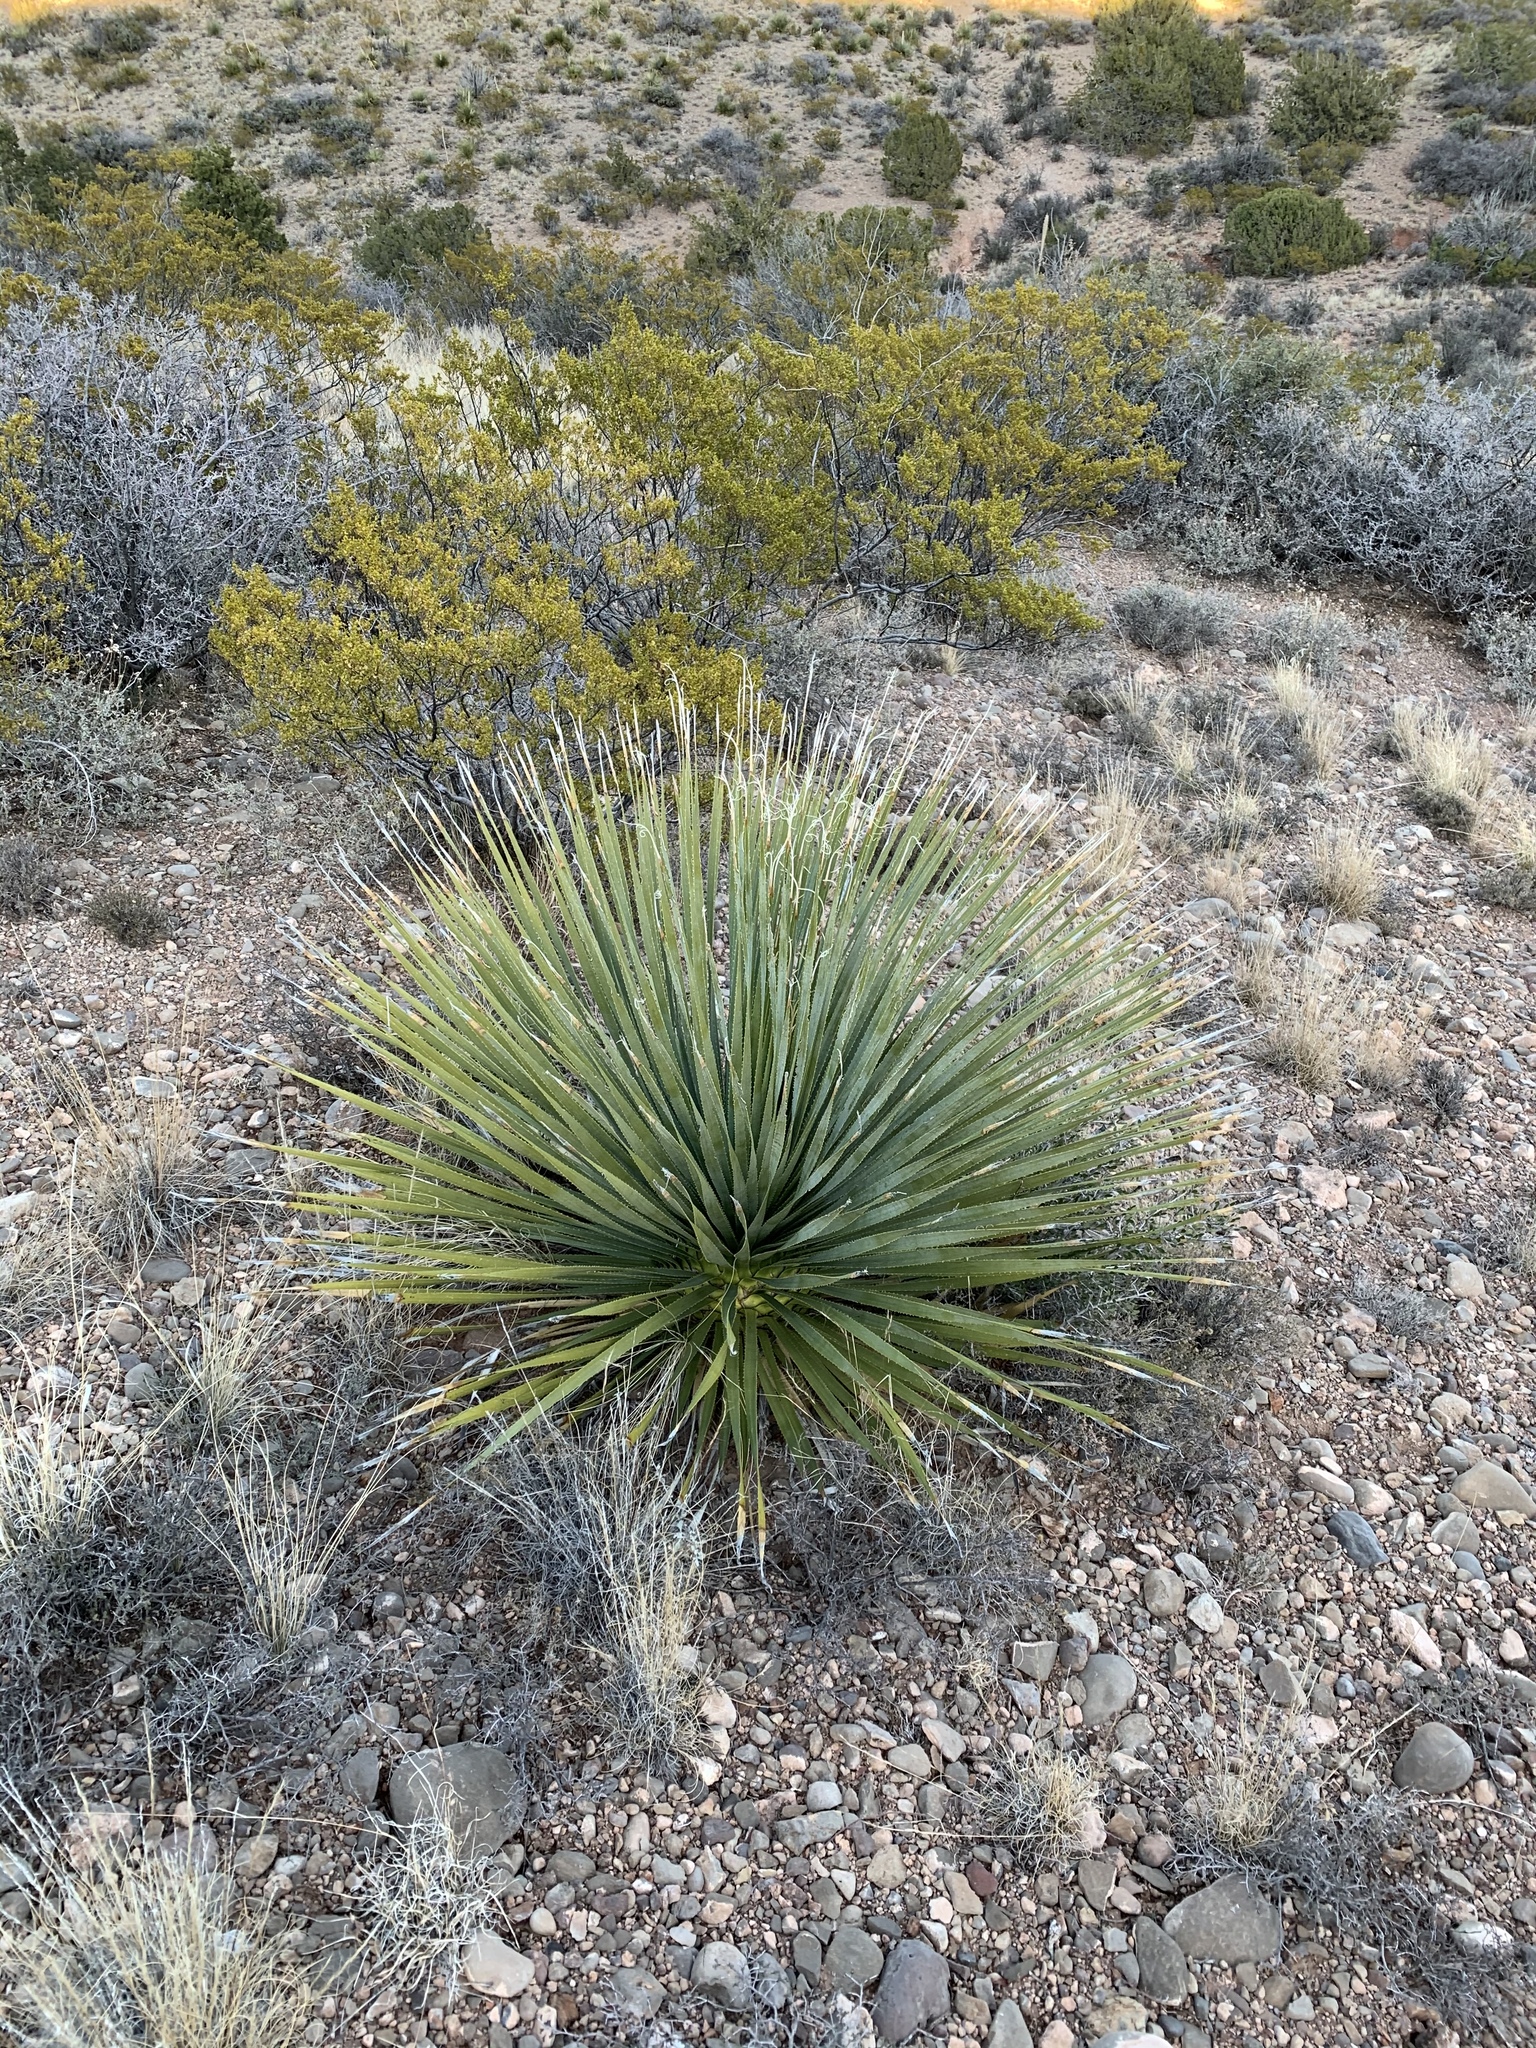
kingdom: Plantae
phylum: Tracheophyta
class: Liliopsida
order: Asparagales
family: Asparagaceae
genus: Dasylirion
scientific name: Dasylirion wheeleri
